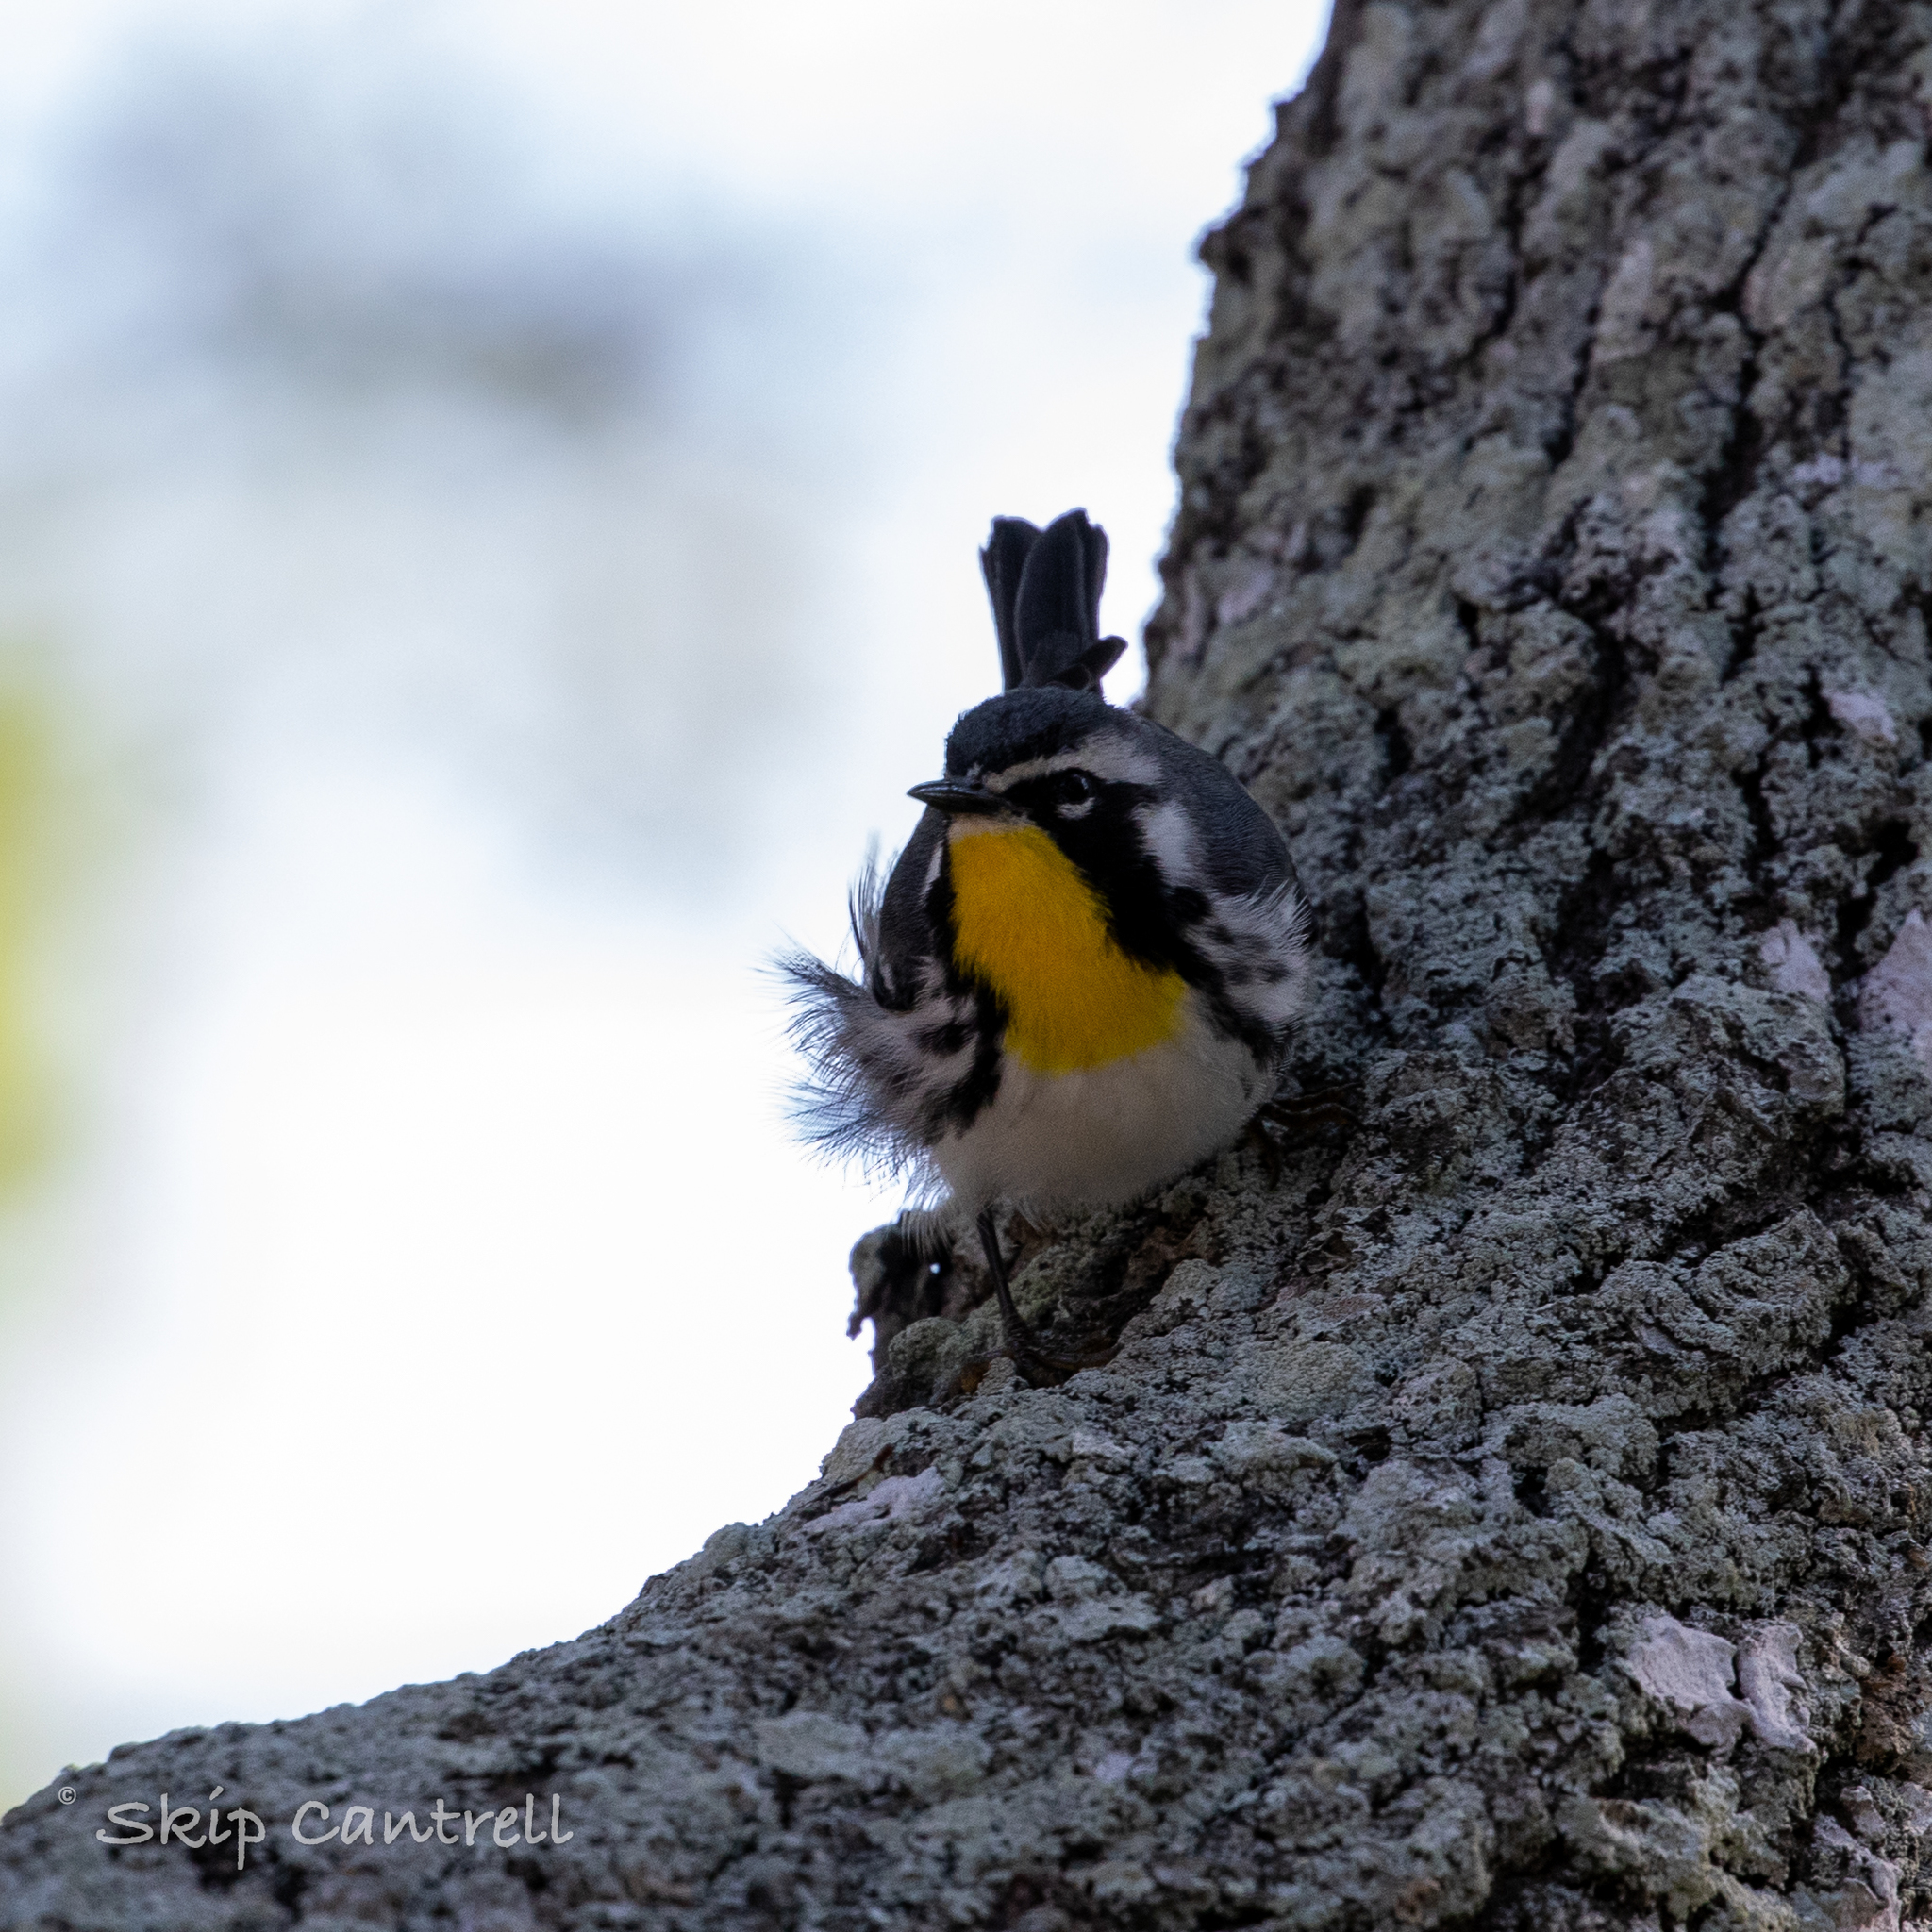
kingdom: Animalia
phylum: Chordata
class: Aves
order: Passeriformes
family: Parulidae
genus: Setophaga
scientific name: Setophaga dominica
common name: Yellow-throated warbler
